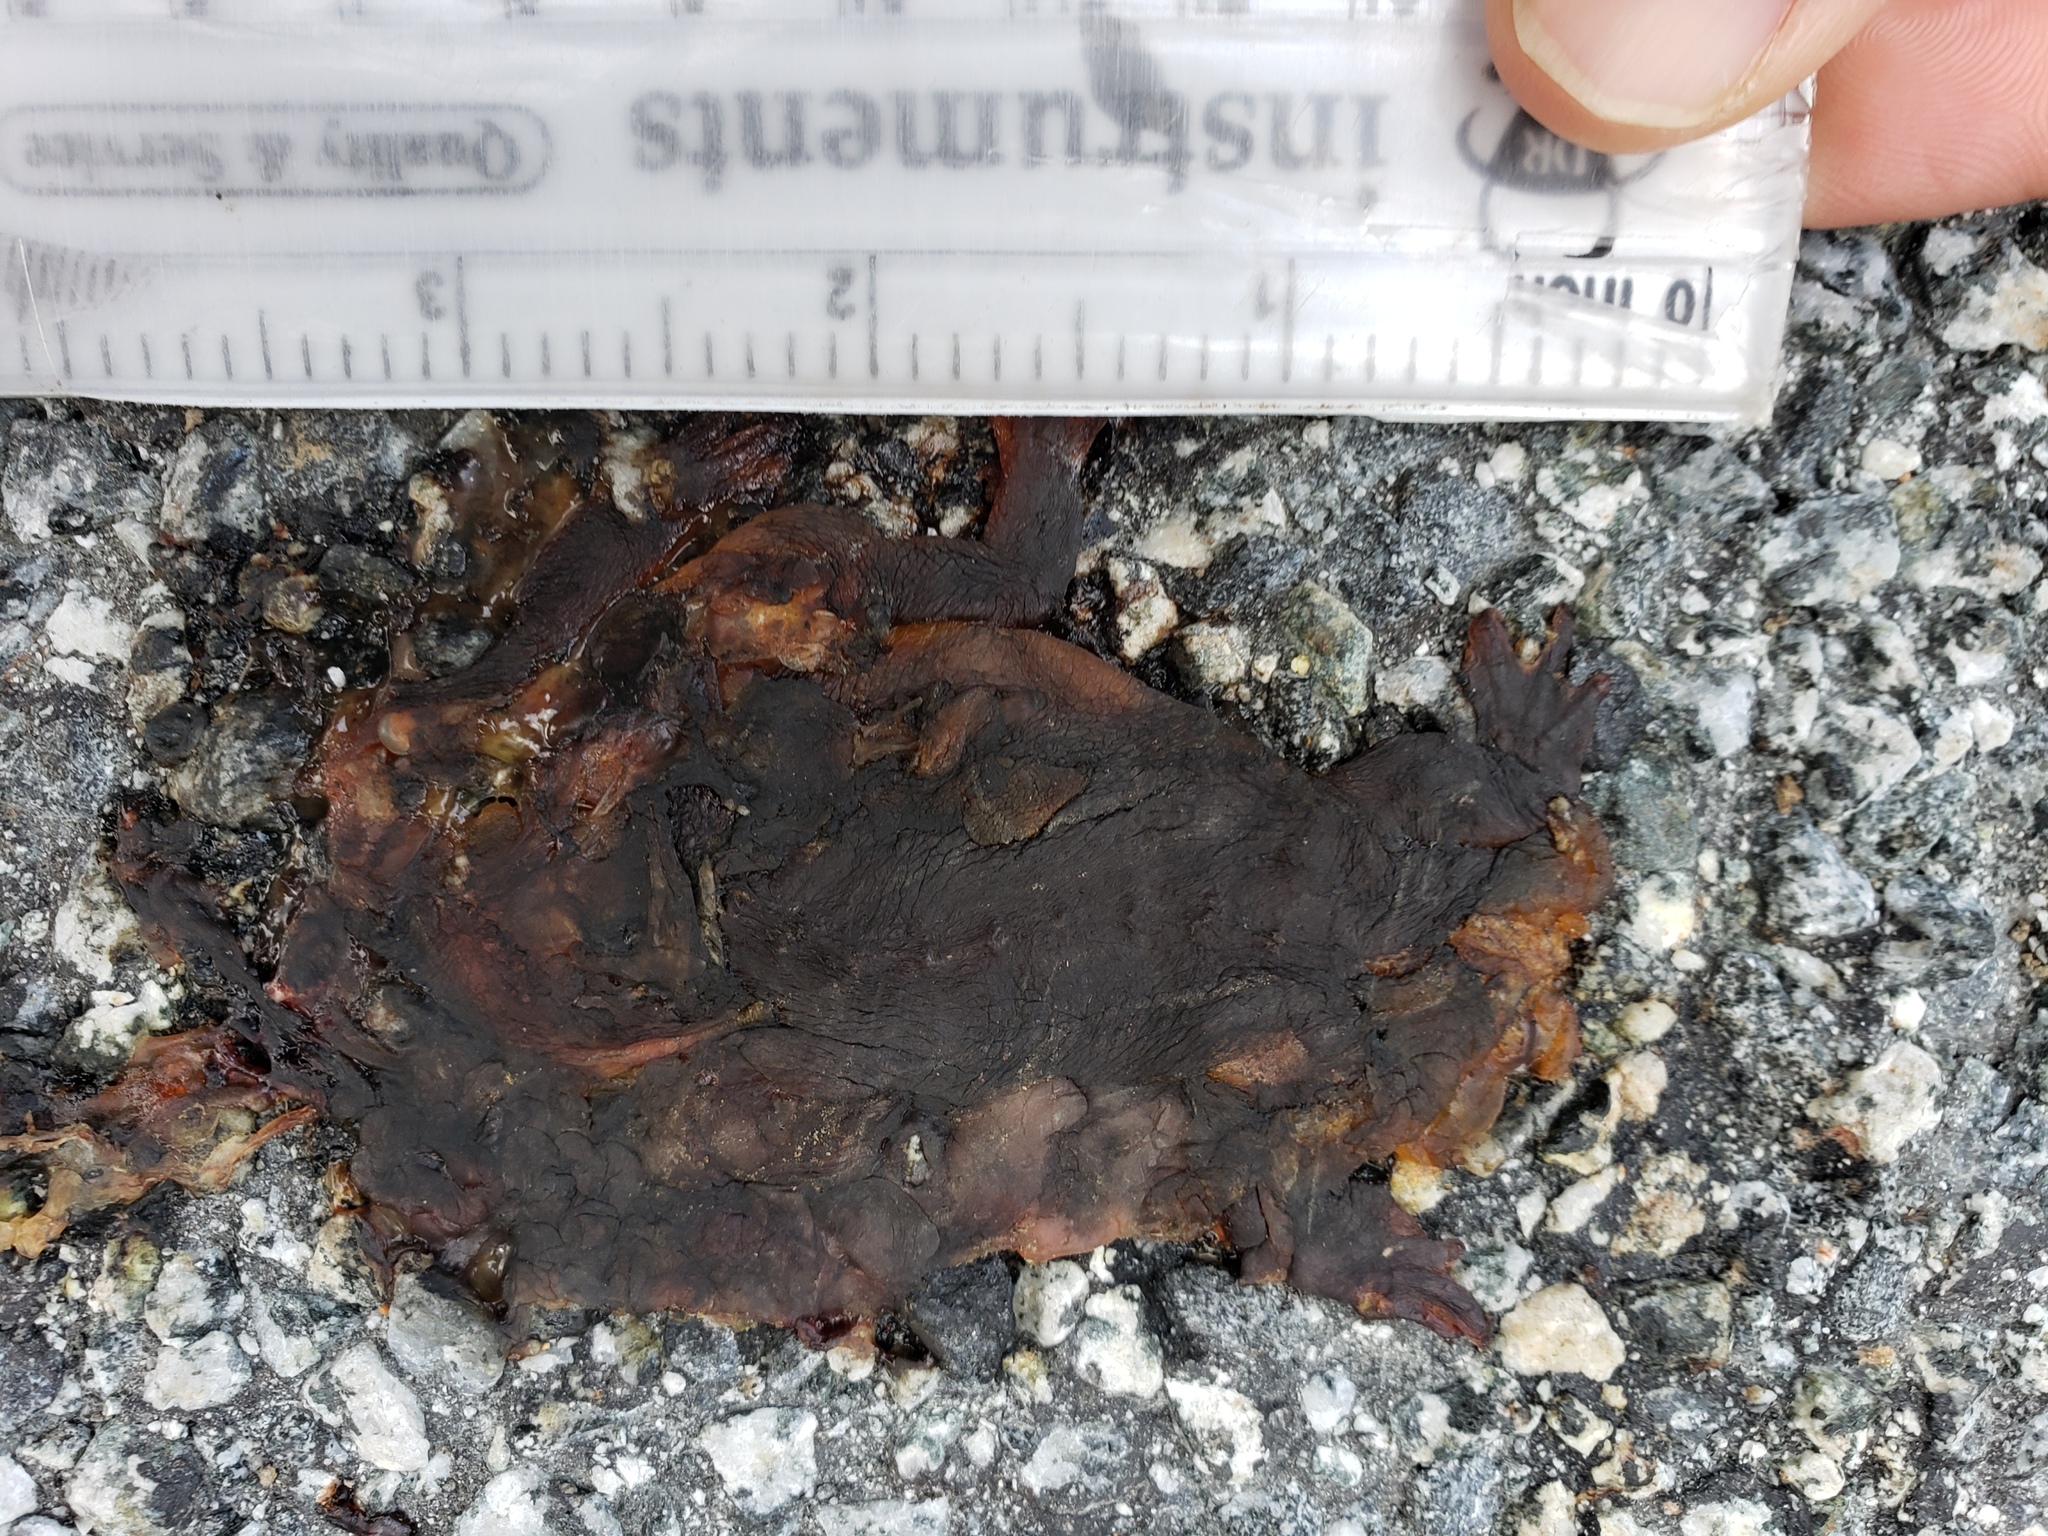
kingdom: Animalia
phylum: Chordata
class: Amphibia
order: Caudata
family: Salamandridae
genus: Taricha
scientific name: Taricha
